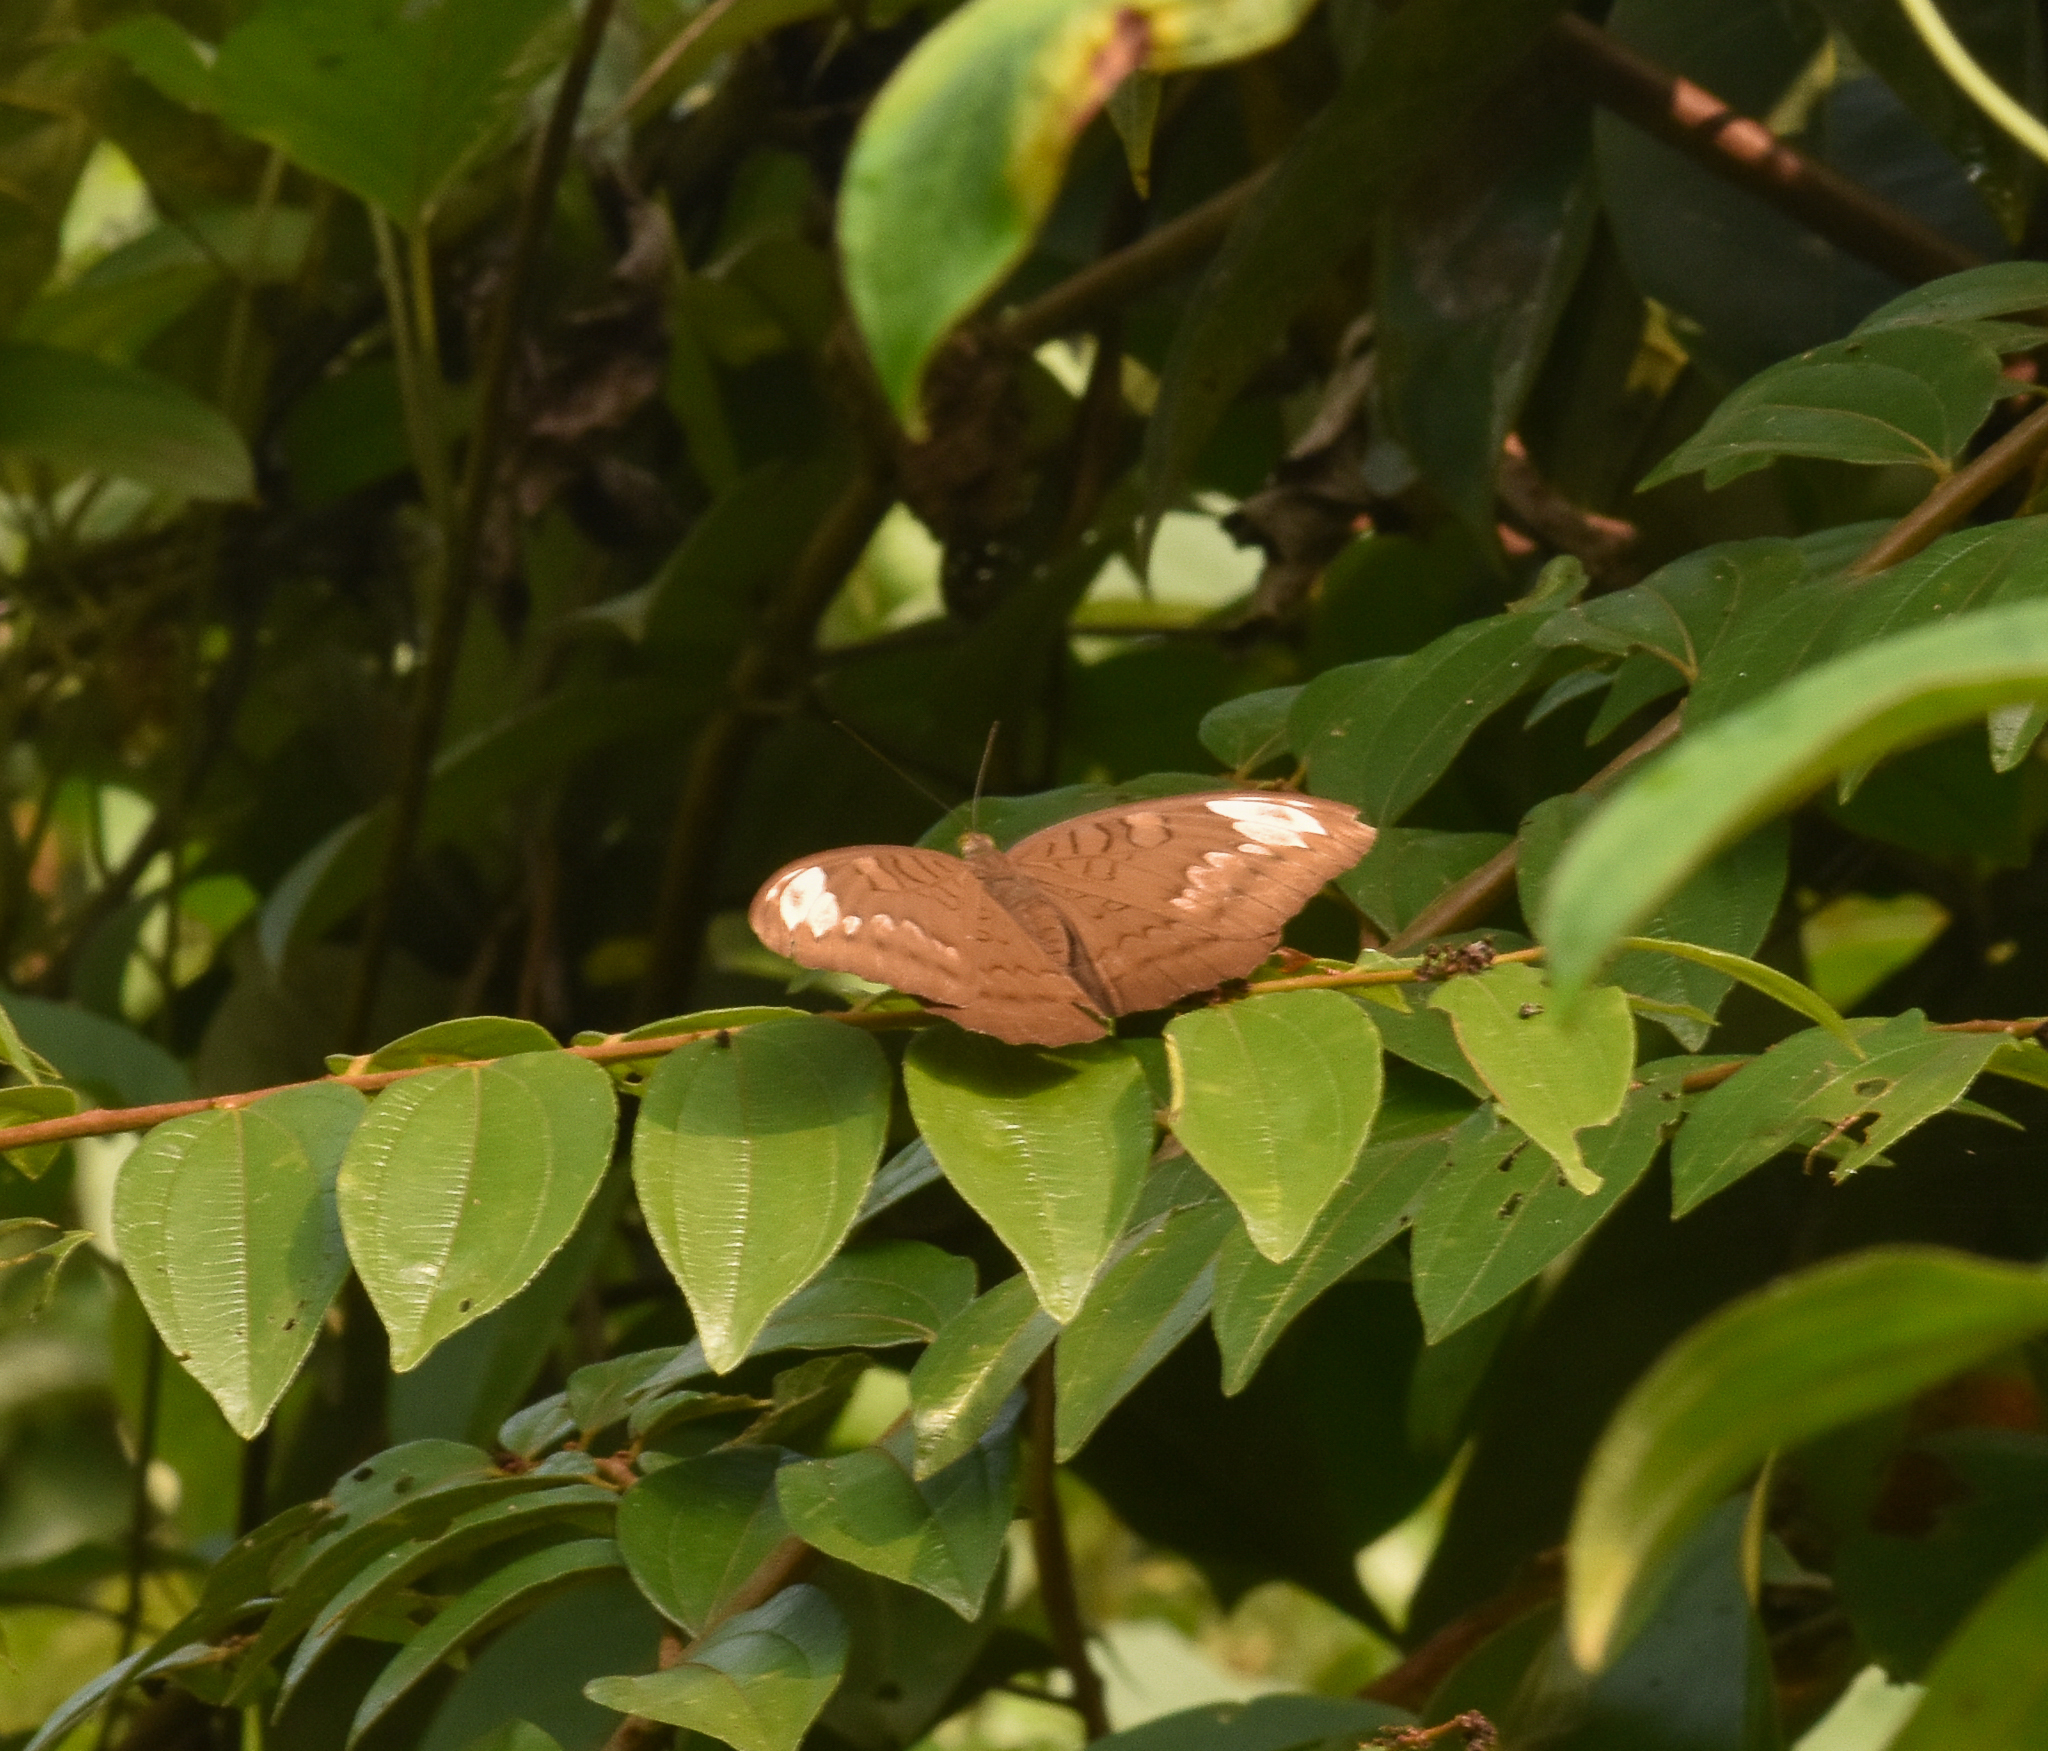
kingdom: Animalia
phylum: Arthropoda
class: Insecta
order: Lepidoptera
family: Nymphalidae
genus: Tanaecia
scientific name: Tanaecia julii
